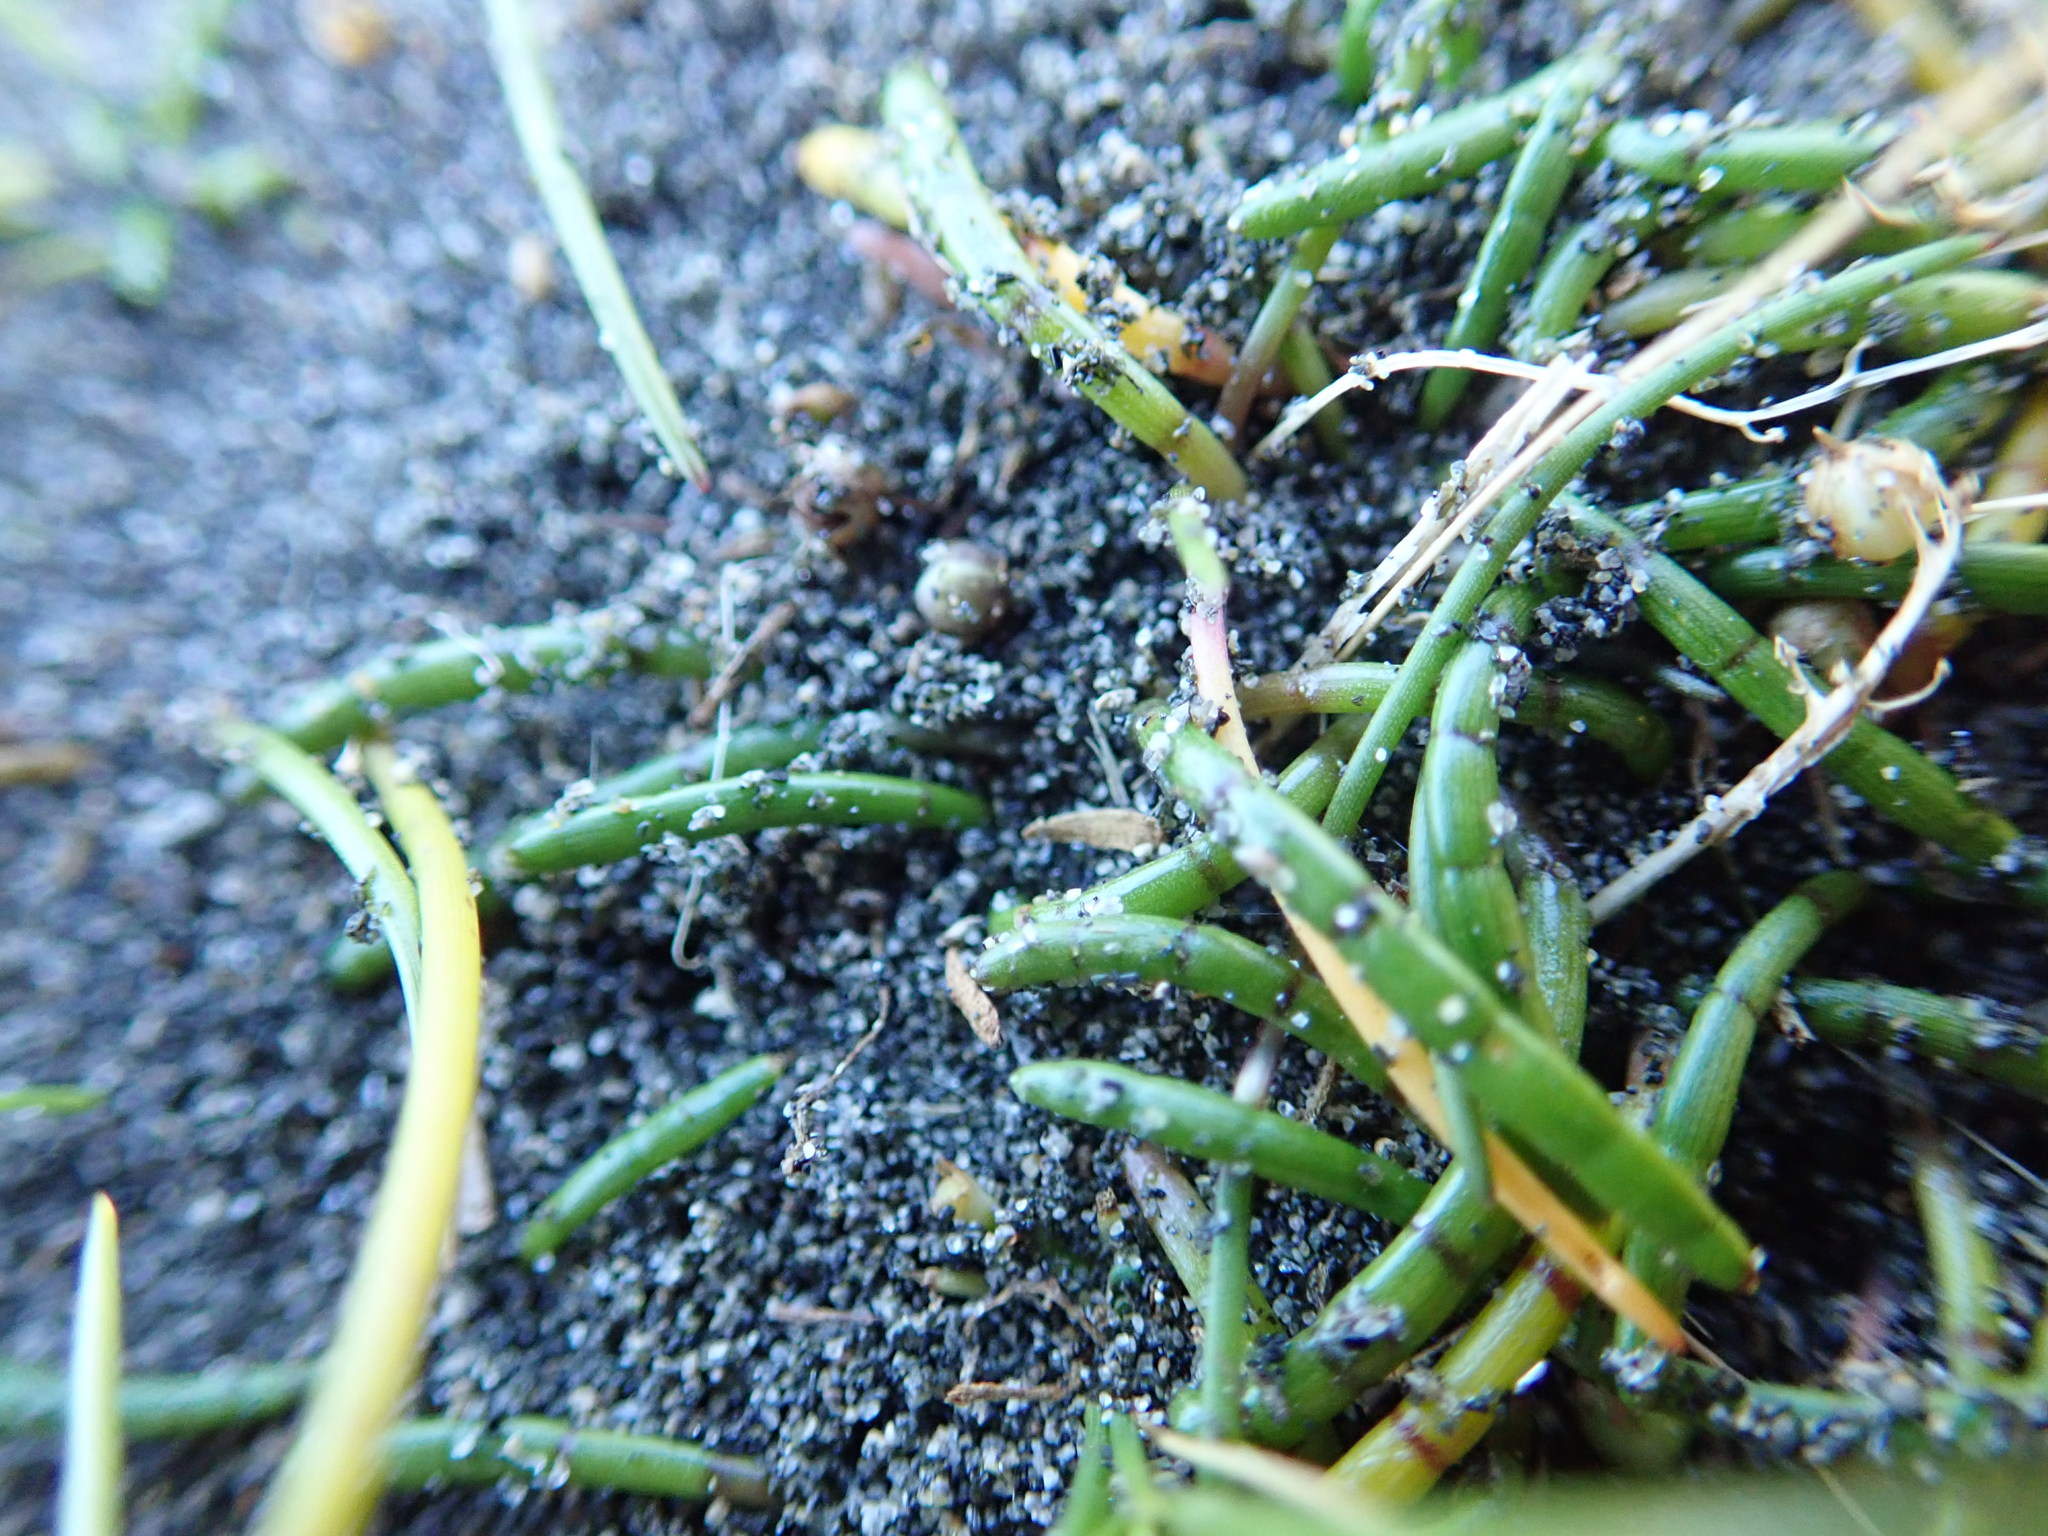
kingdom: Plantae
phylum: Tracheophyta
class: Magnoliopsida
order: Apiales
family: Apiaceae
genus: Lilaeopsis
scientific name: Lilaeopsis novae-zelandiae
